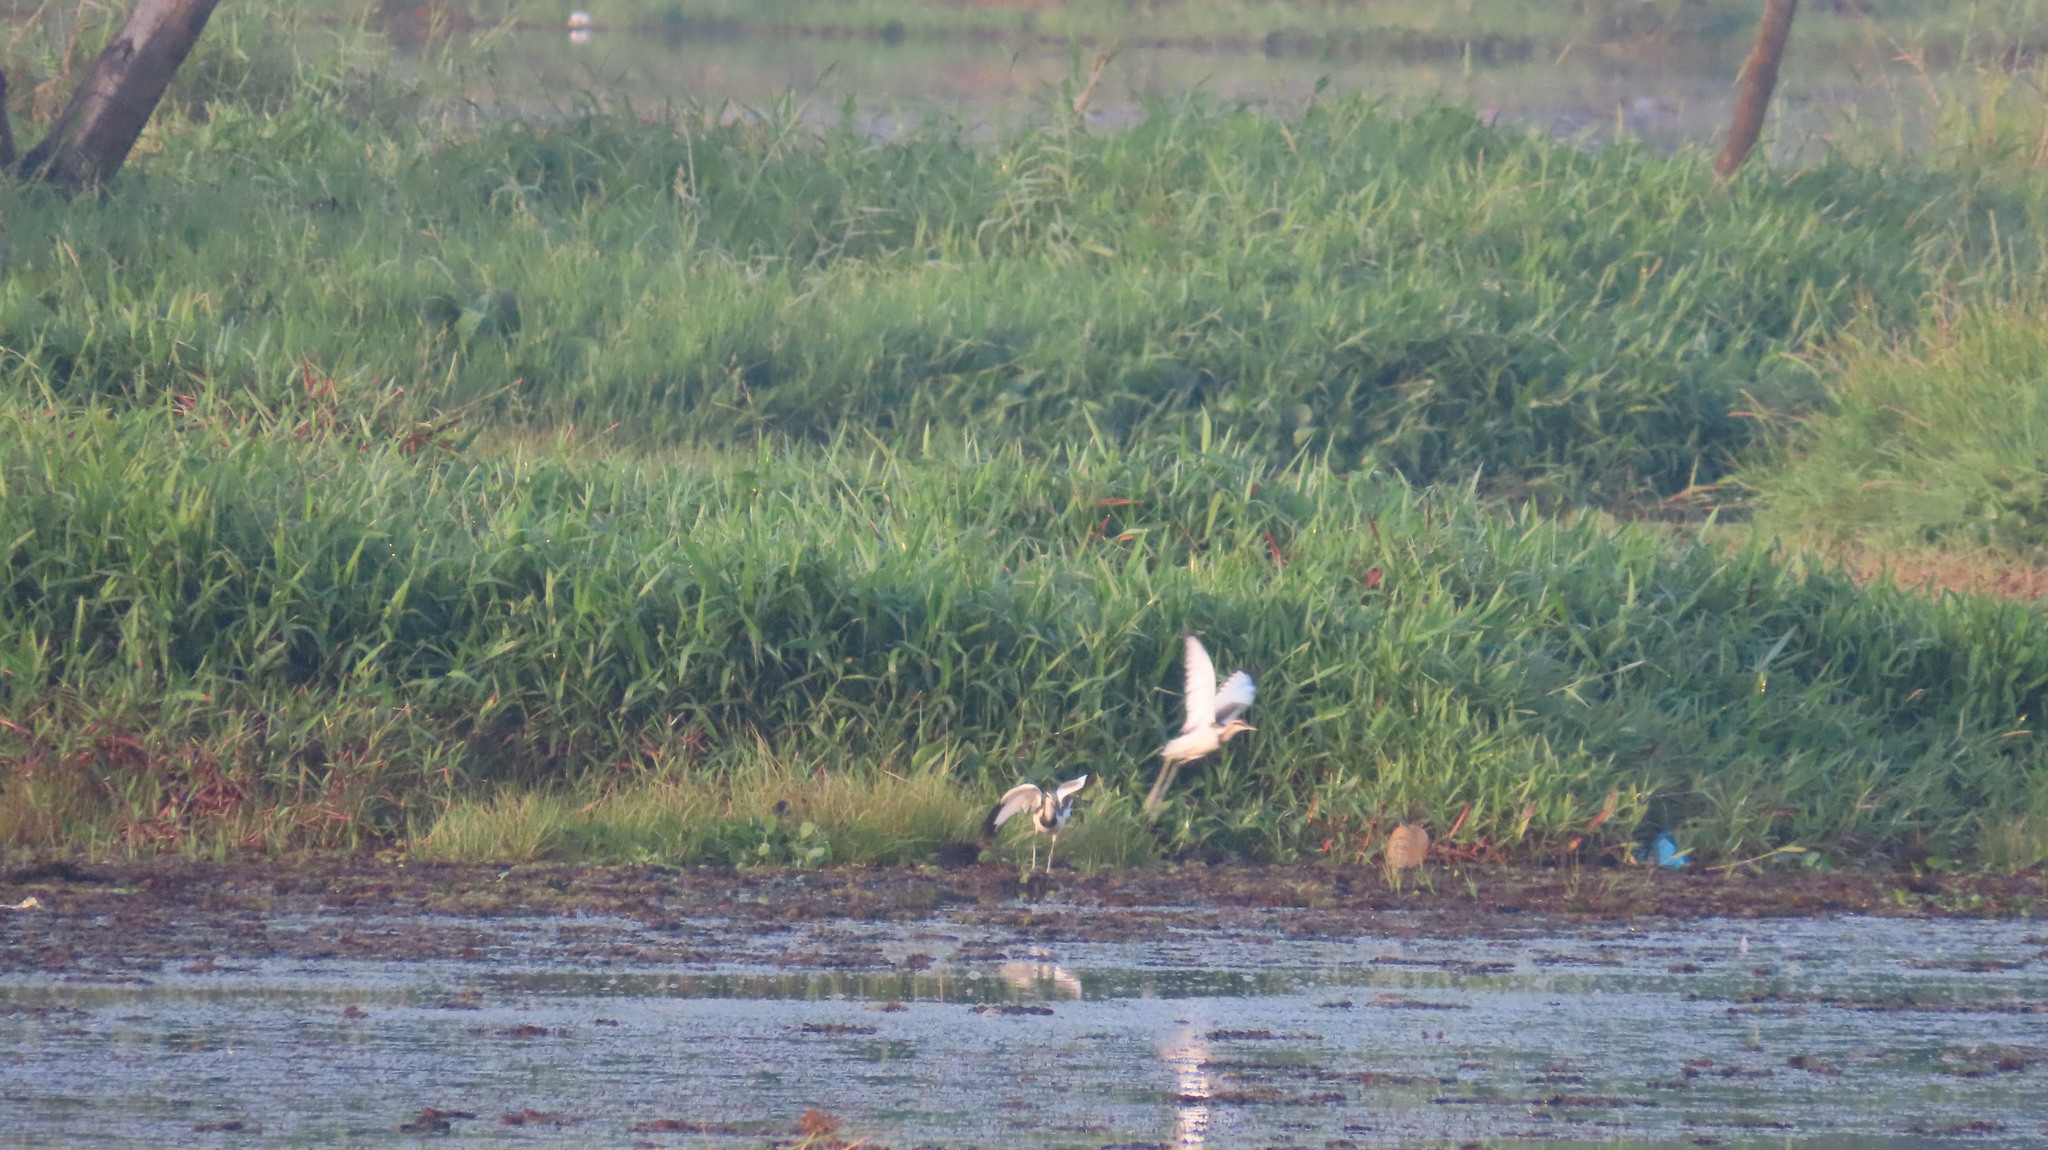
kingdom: Animalia
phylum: Chordata
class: Aves
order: Charadriiformes
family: Jacanidae
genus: Hydrophasianus
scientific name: Hydrophasianus chirurgus
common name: Pheasant-tailed jacana
